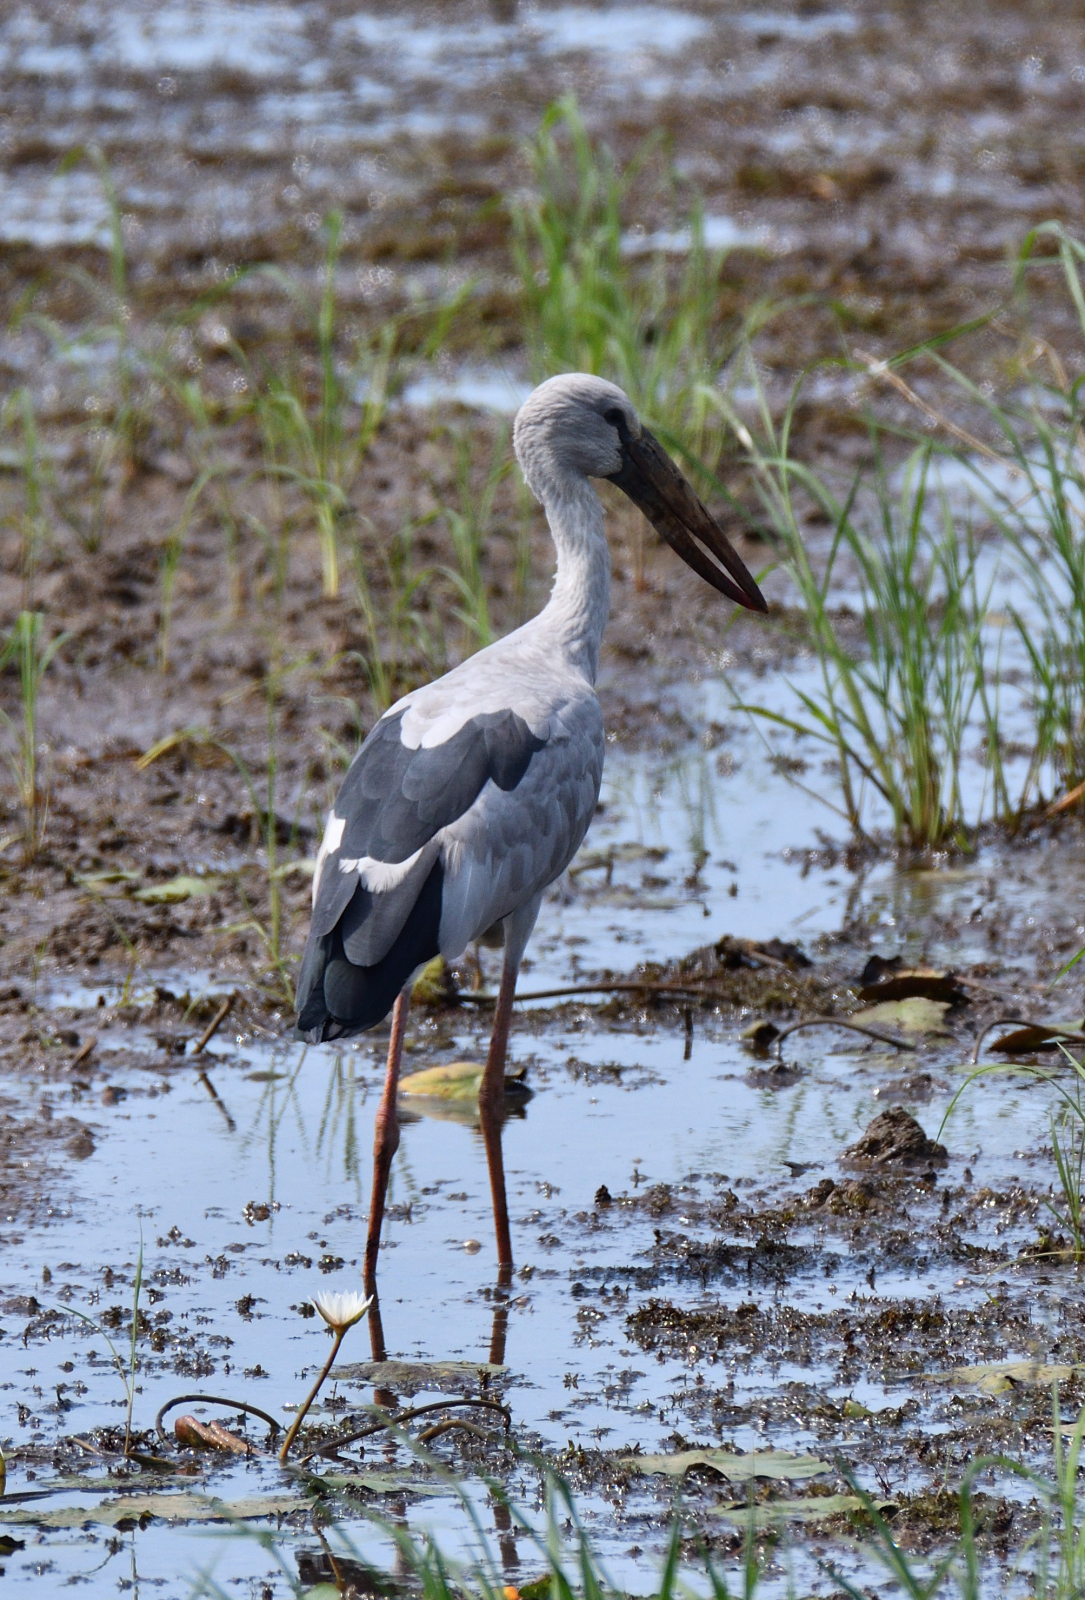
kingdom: Animalia
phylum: Chordata
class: Aves
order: Ciconiiformes
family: Ciconiidae
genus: Anastomus
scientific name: Anastomus oscitans
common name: Asian openbill
